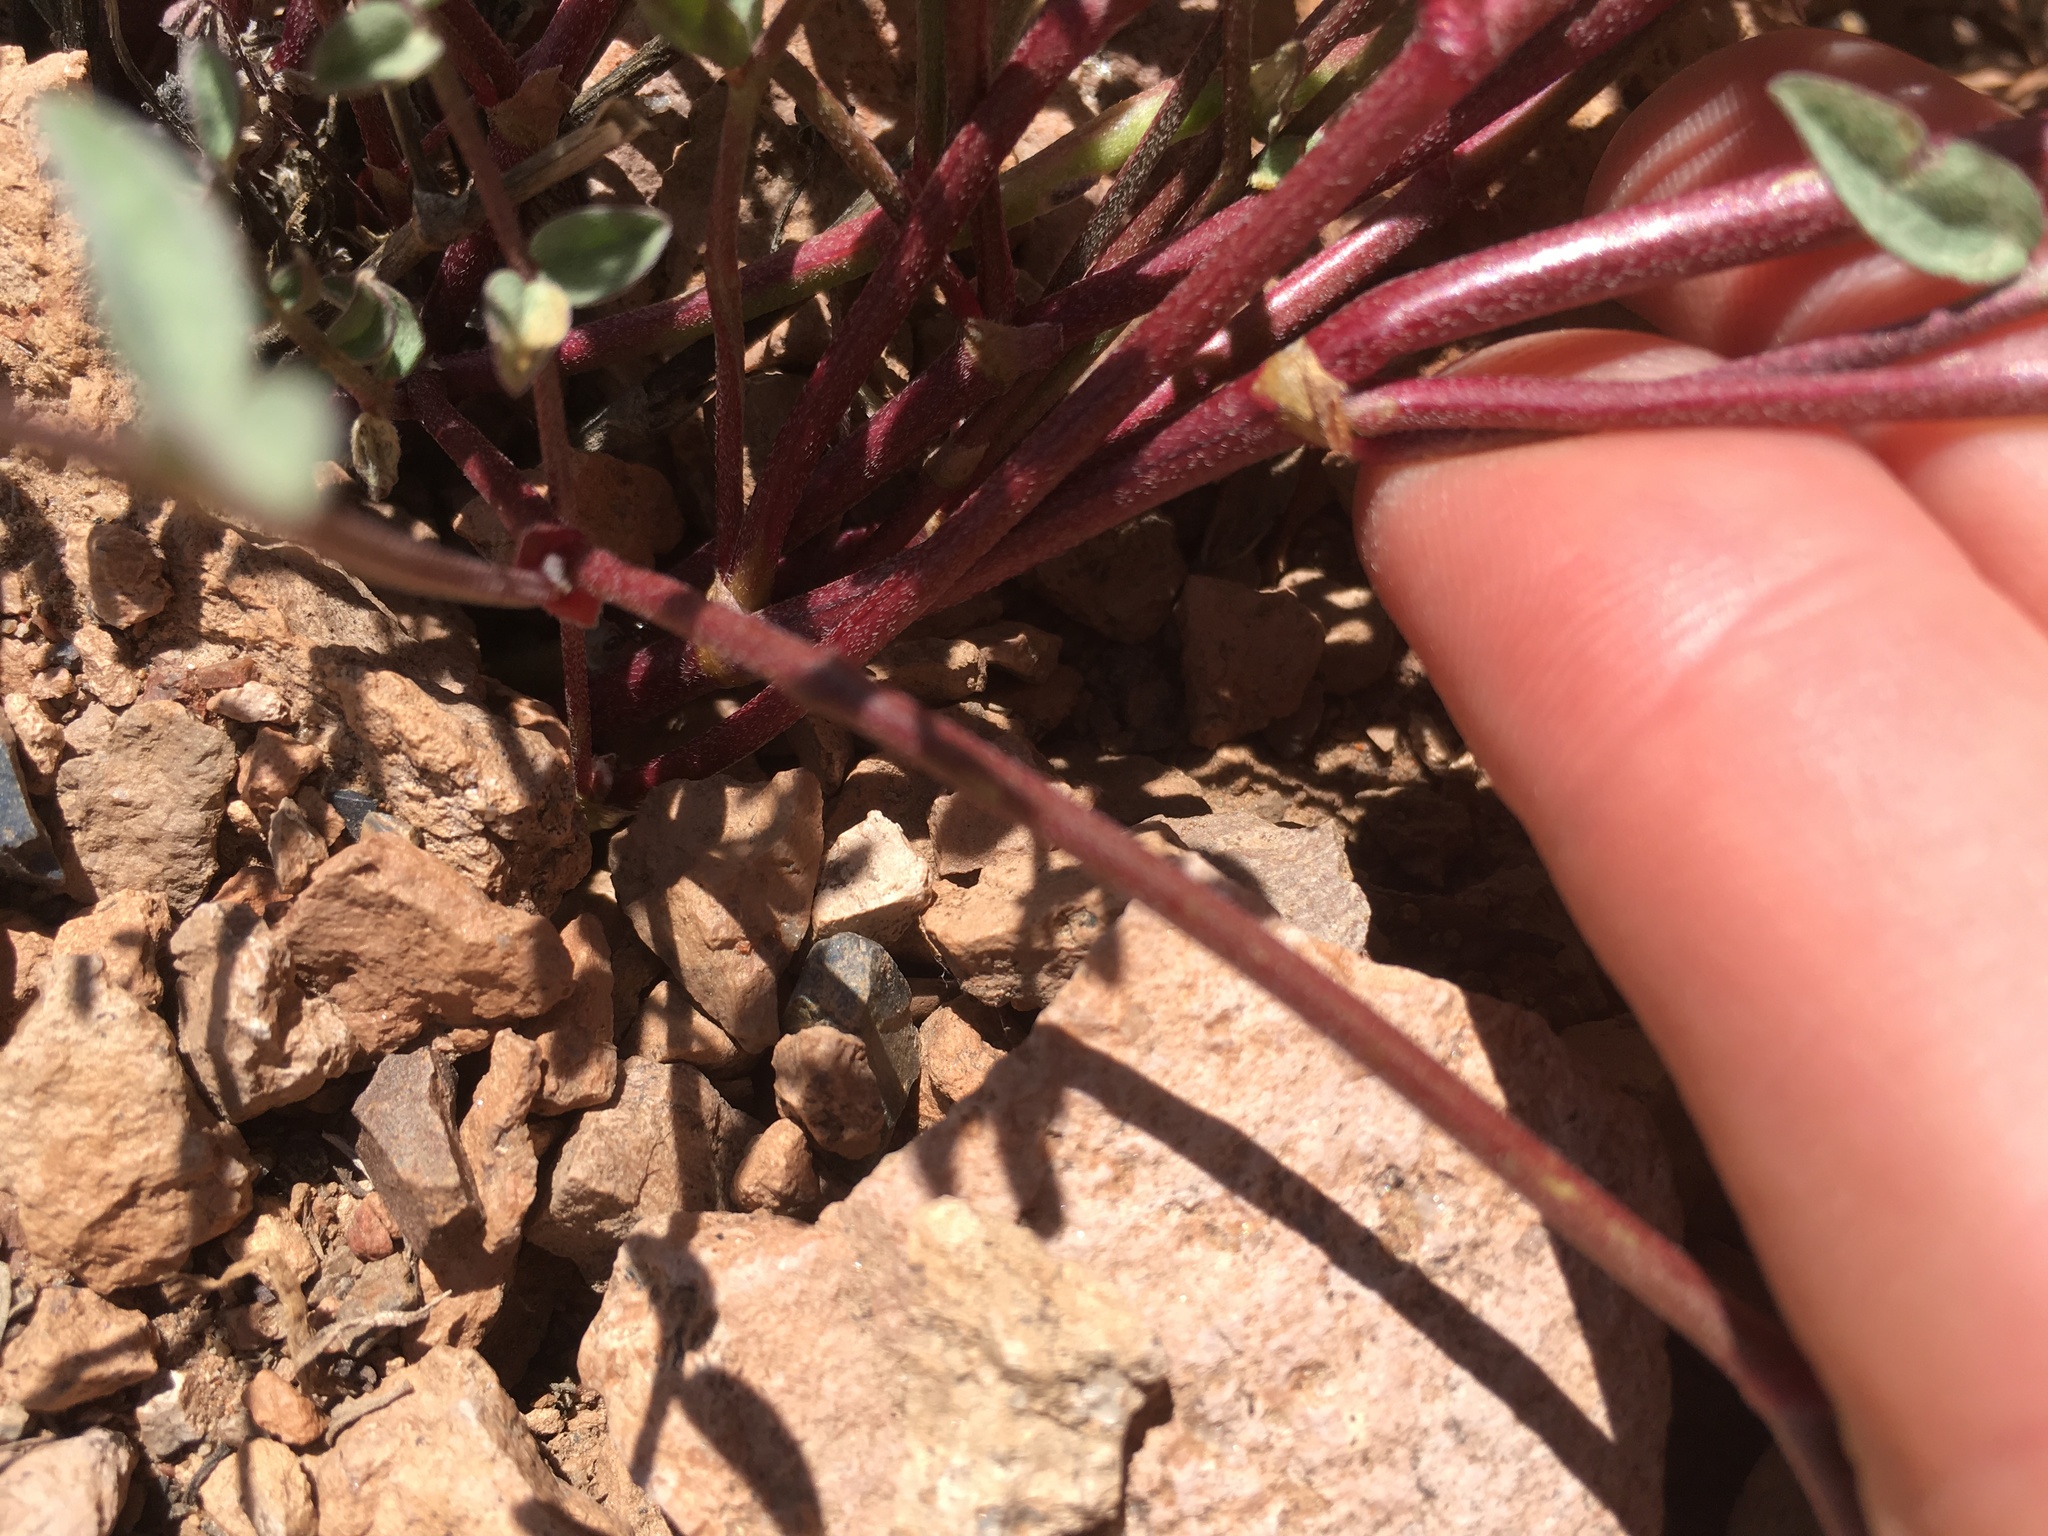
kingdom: Plantae
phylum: Tracheophyta
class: Magnoliopsida
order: Fabales
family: Fabaceae
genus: Astragalus
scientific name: Astragalus whitneyi
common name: Balloonpod milkvetch
